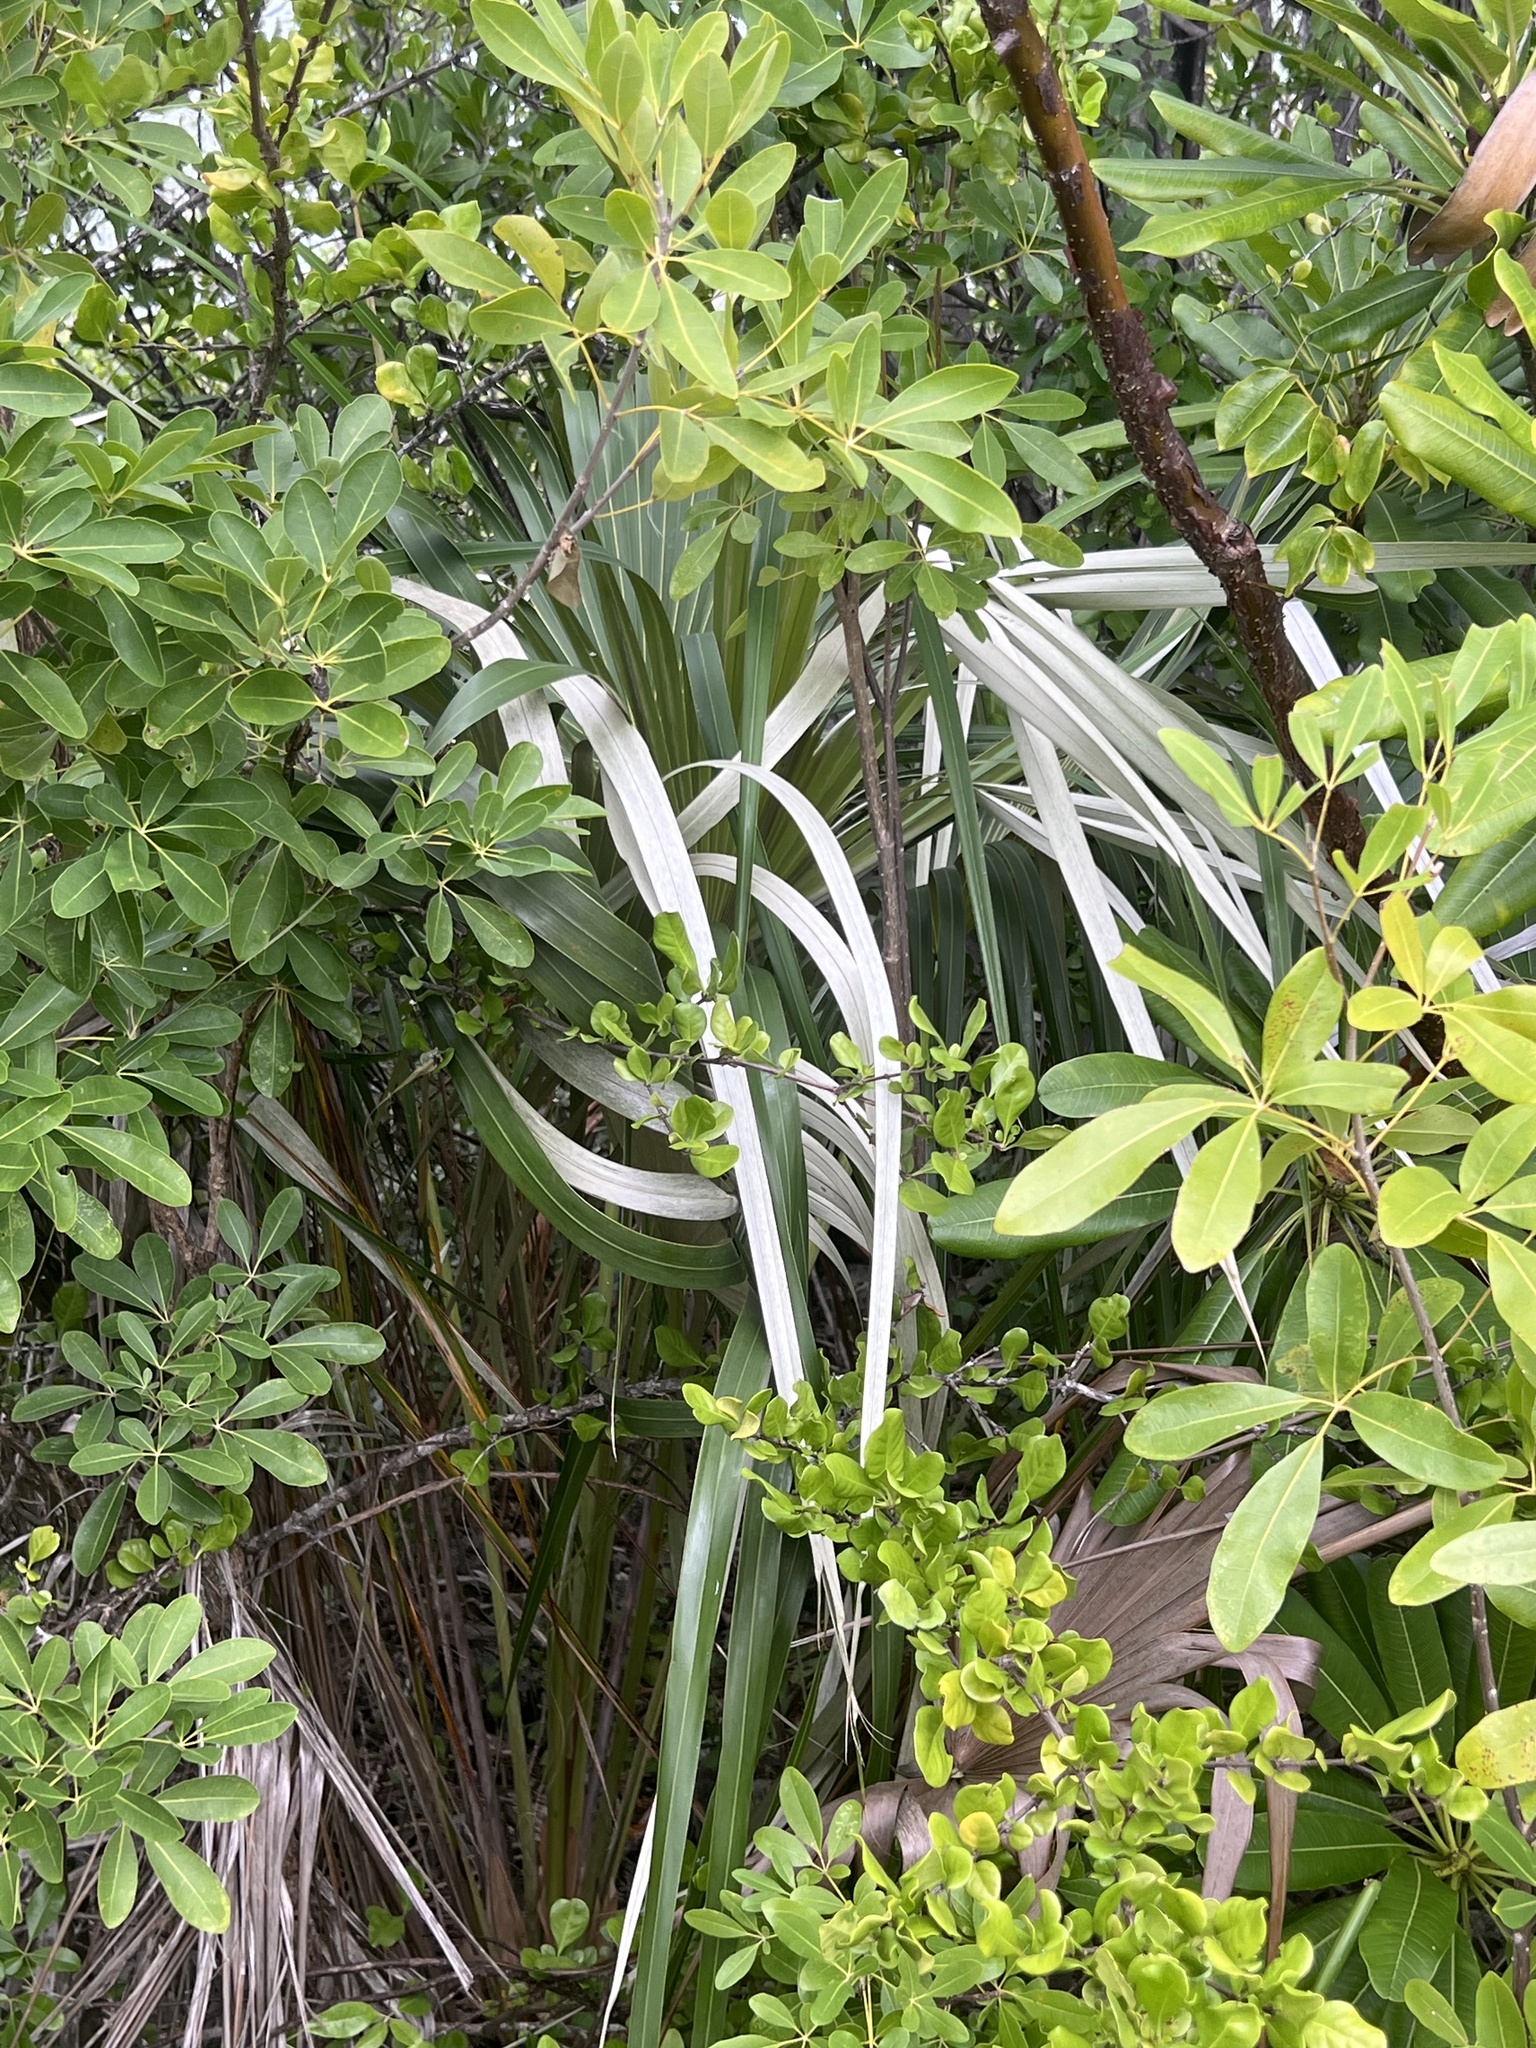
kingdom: Plantae
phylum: Tracheophyta
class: Liliopsida
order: Arecales
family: Arecaceae
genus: Coccothrinax
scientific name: Coccothrinax proctorii
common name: Silver palm
